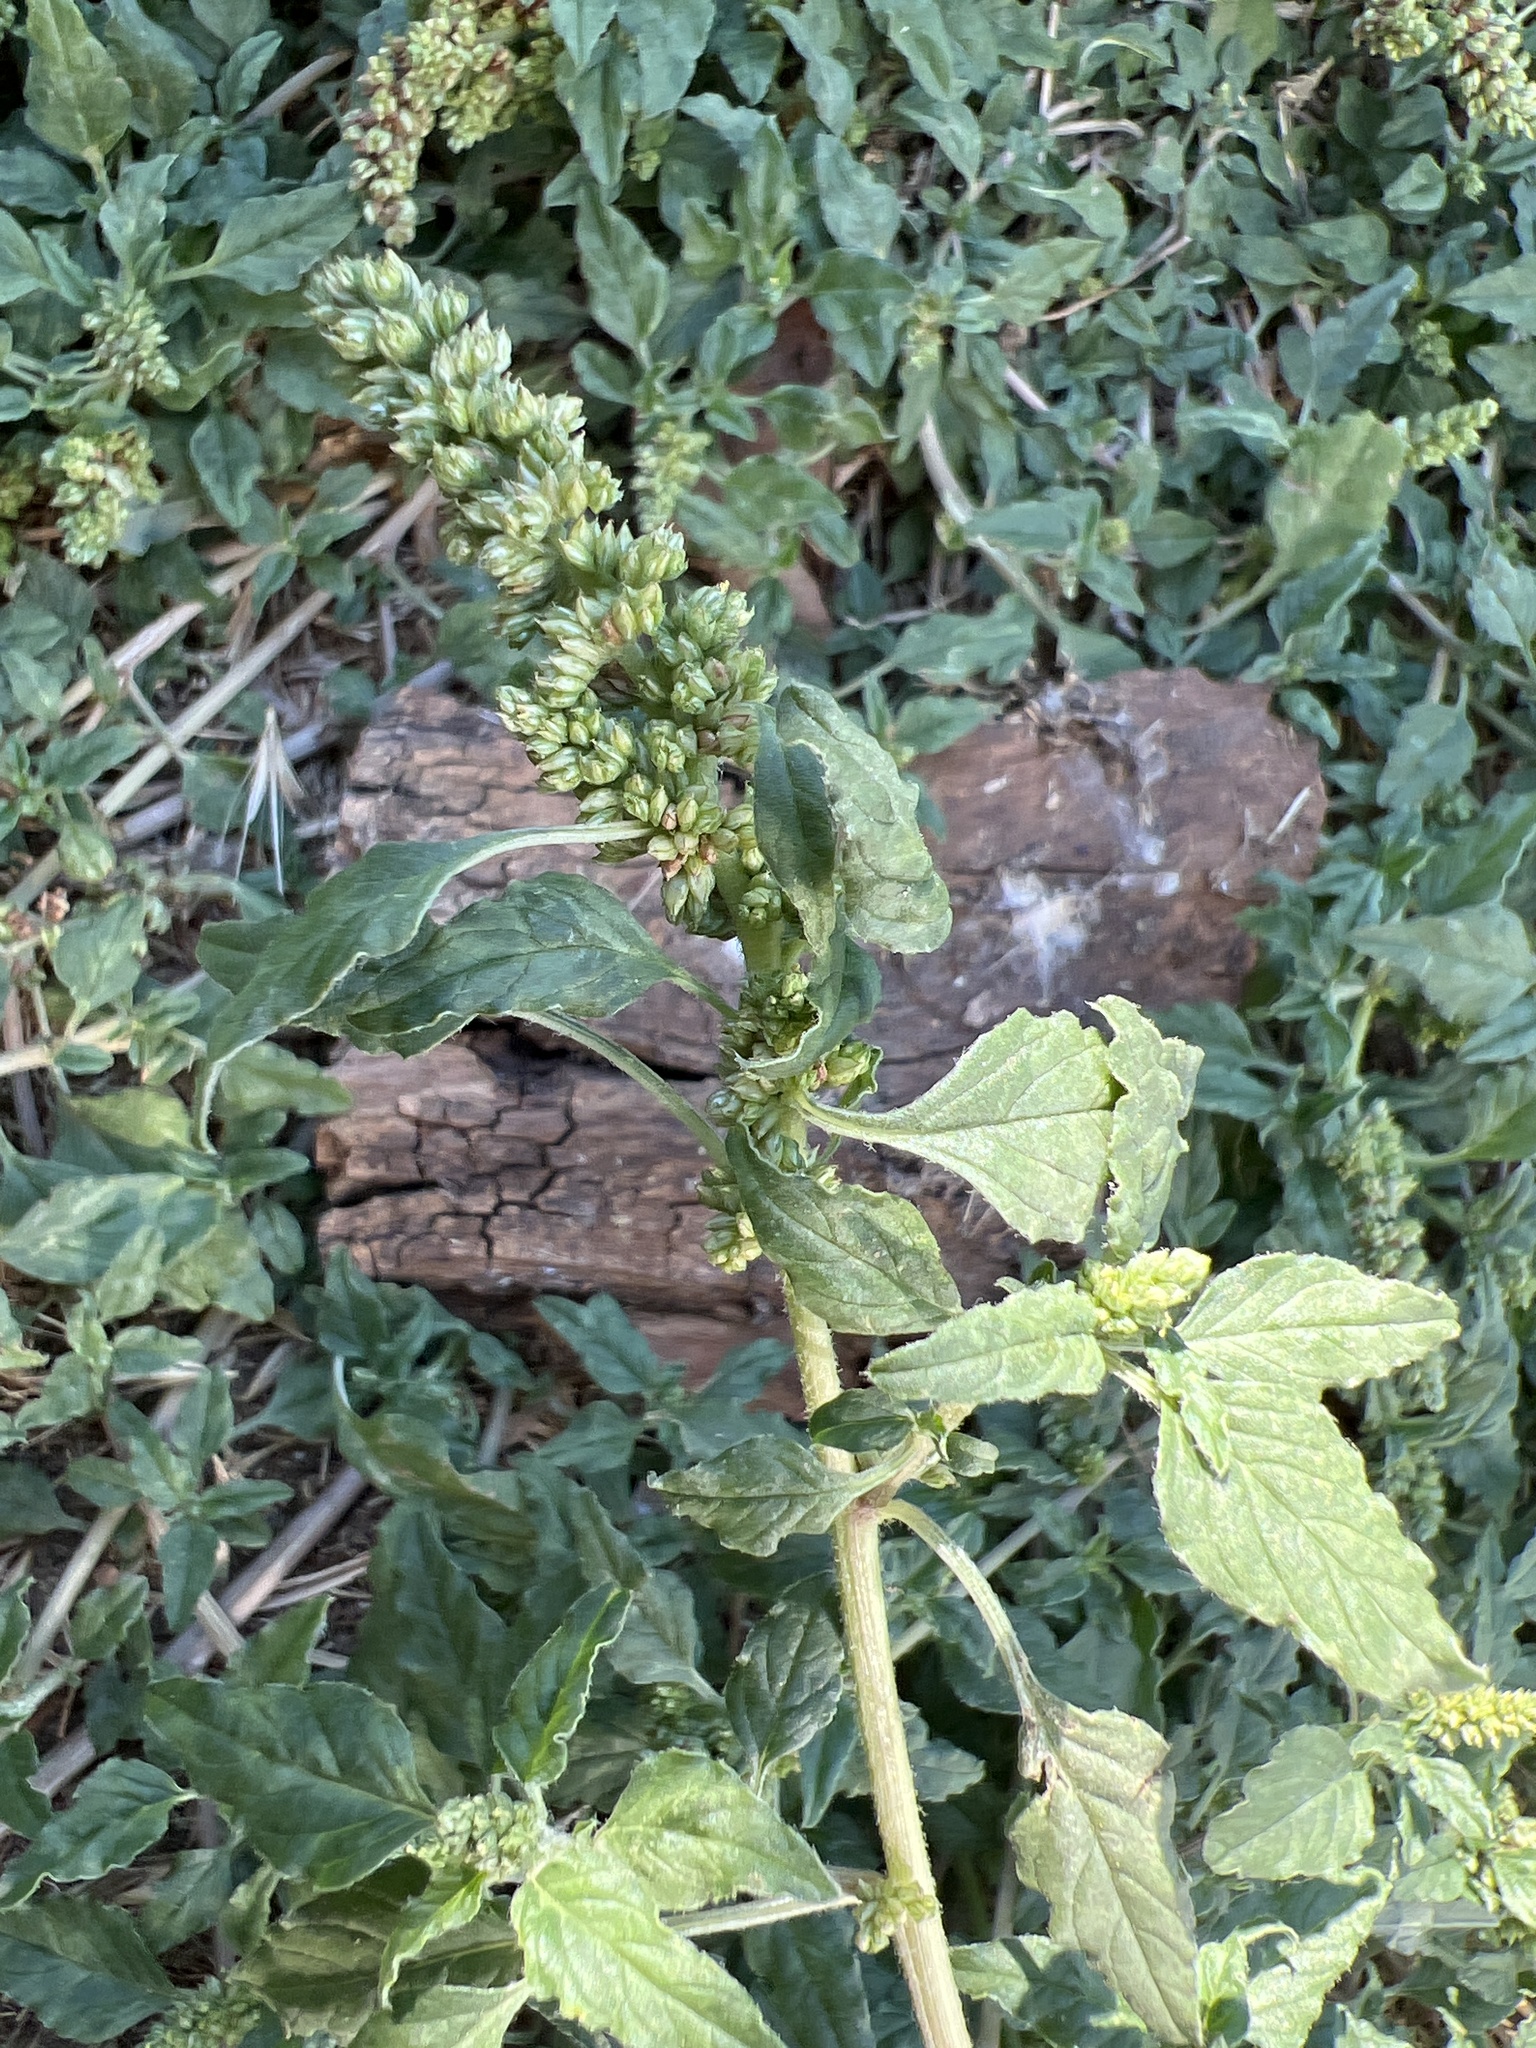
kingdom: Plantae
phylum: Tracheophyta
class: Magnoliopsida
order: Caryophyllales
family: Amaranthaceae
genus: Amaranthus
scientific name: Amaranthus deflexus
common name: Perennial pigweed
